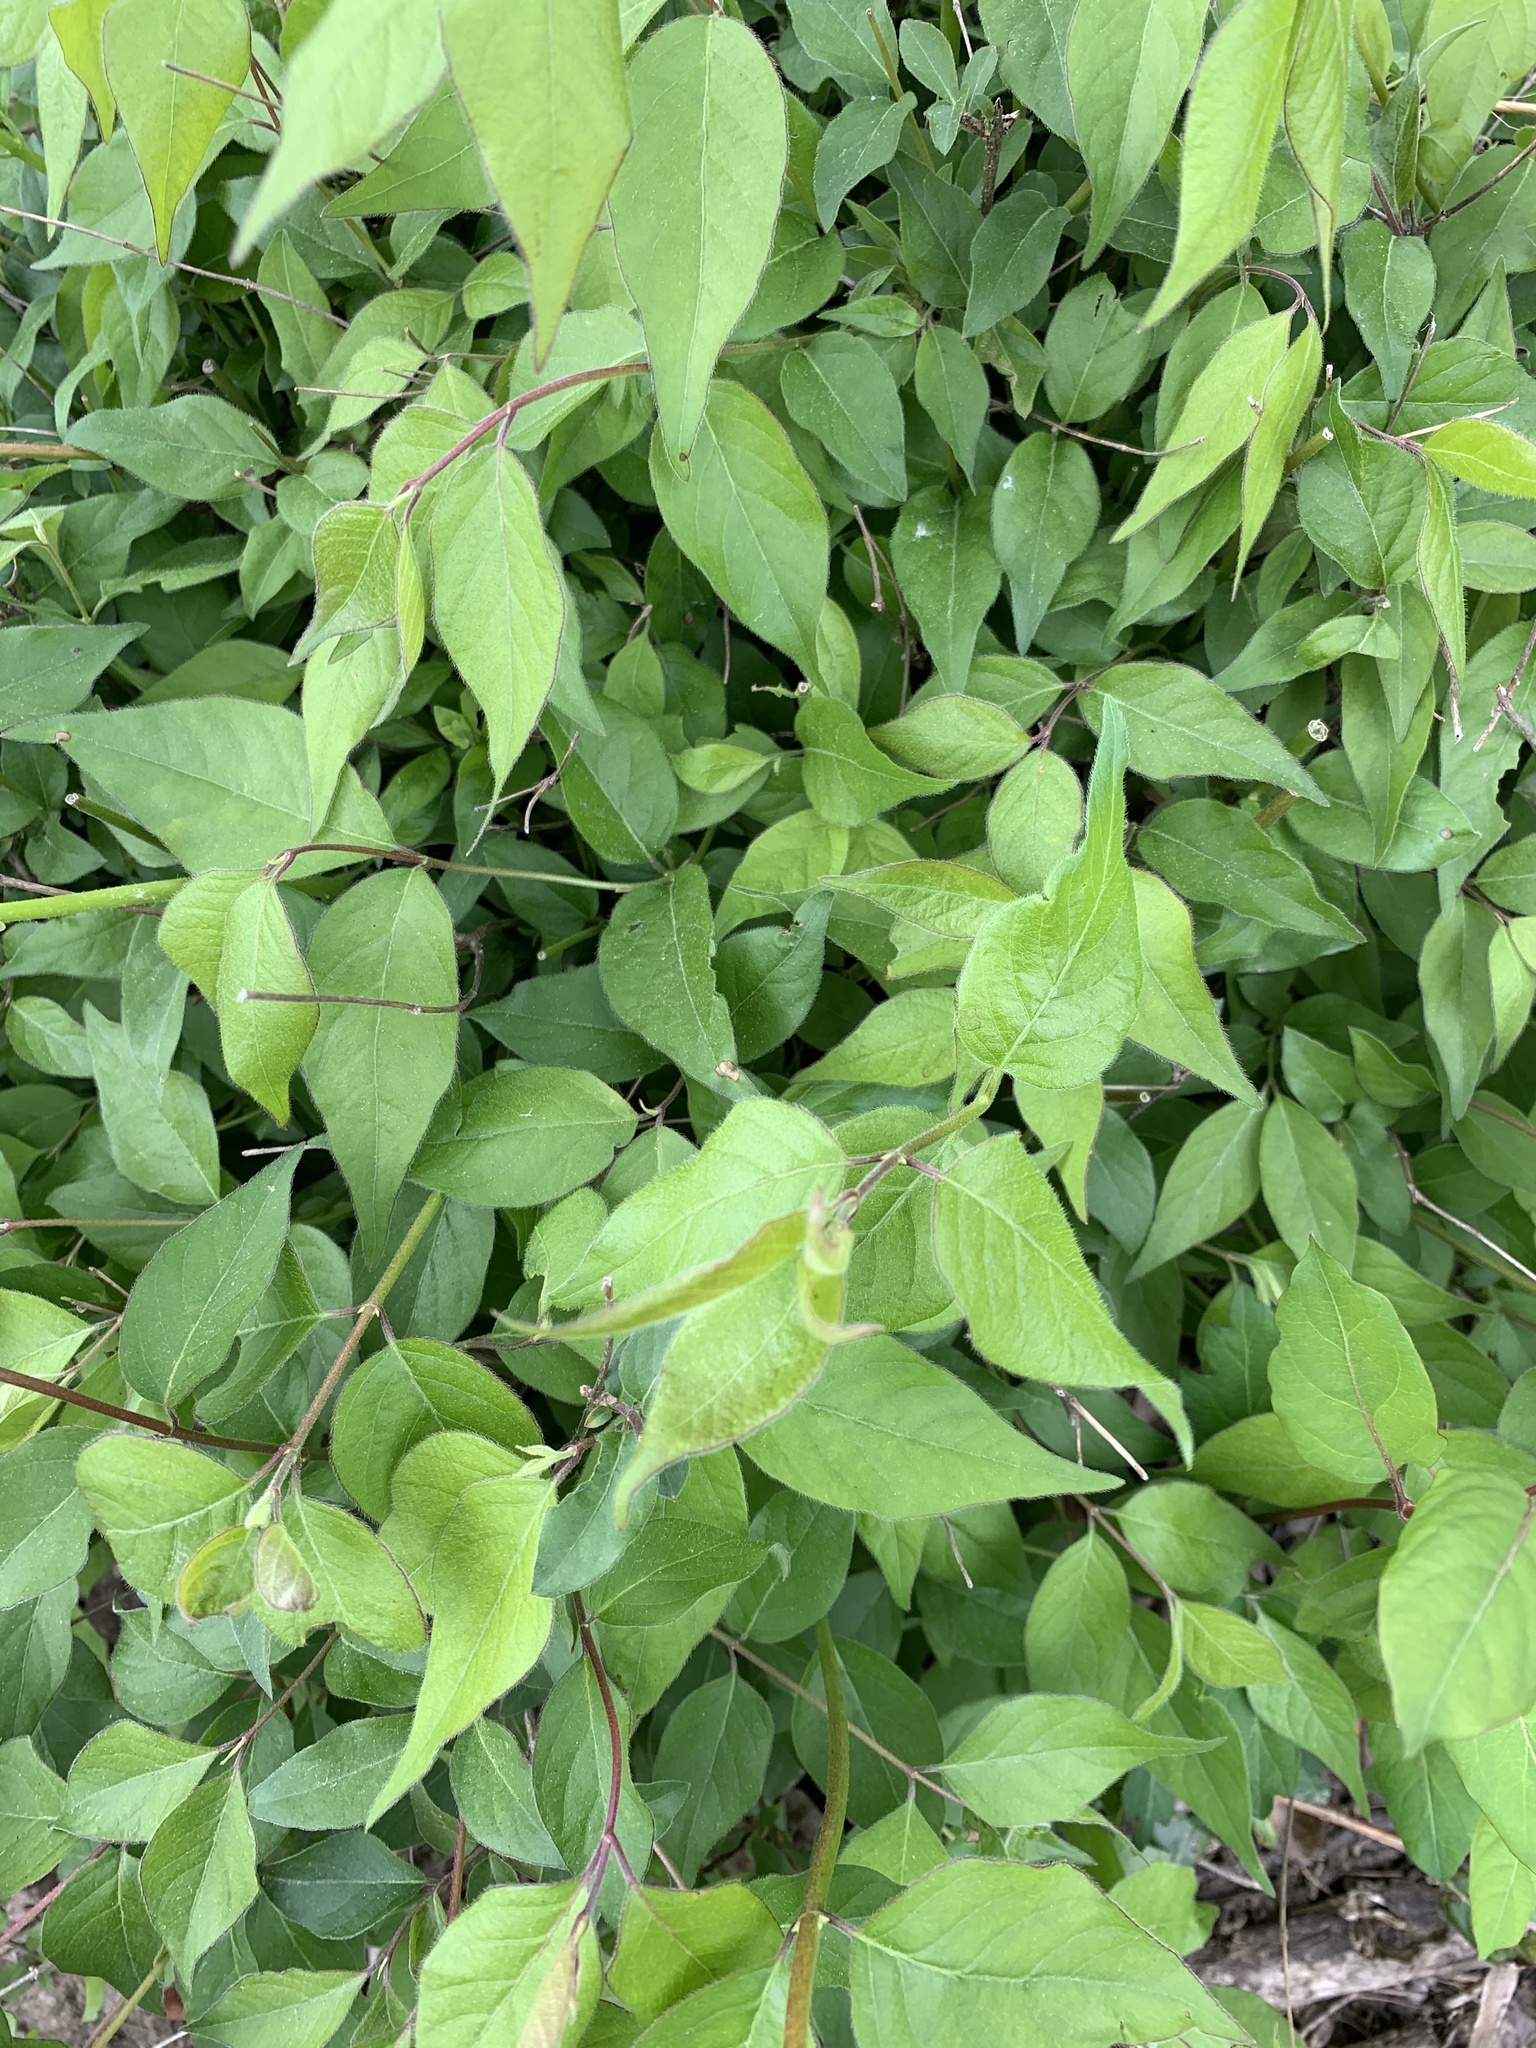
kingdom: Plantae
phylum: Tracheophyta
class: Magnoliopsida
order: Dipsacales
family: Caprifoliaceae
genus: Lonicera
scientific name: Lonicera maackii
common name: Amur honeysuckle
